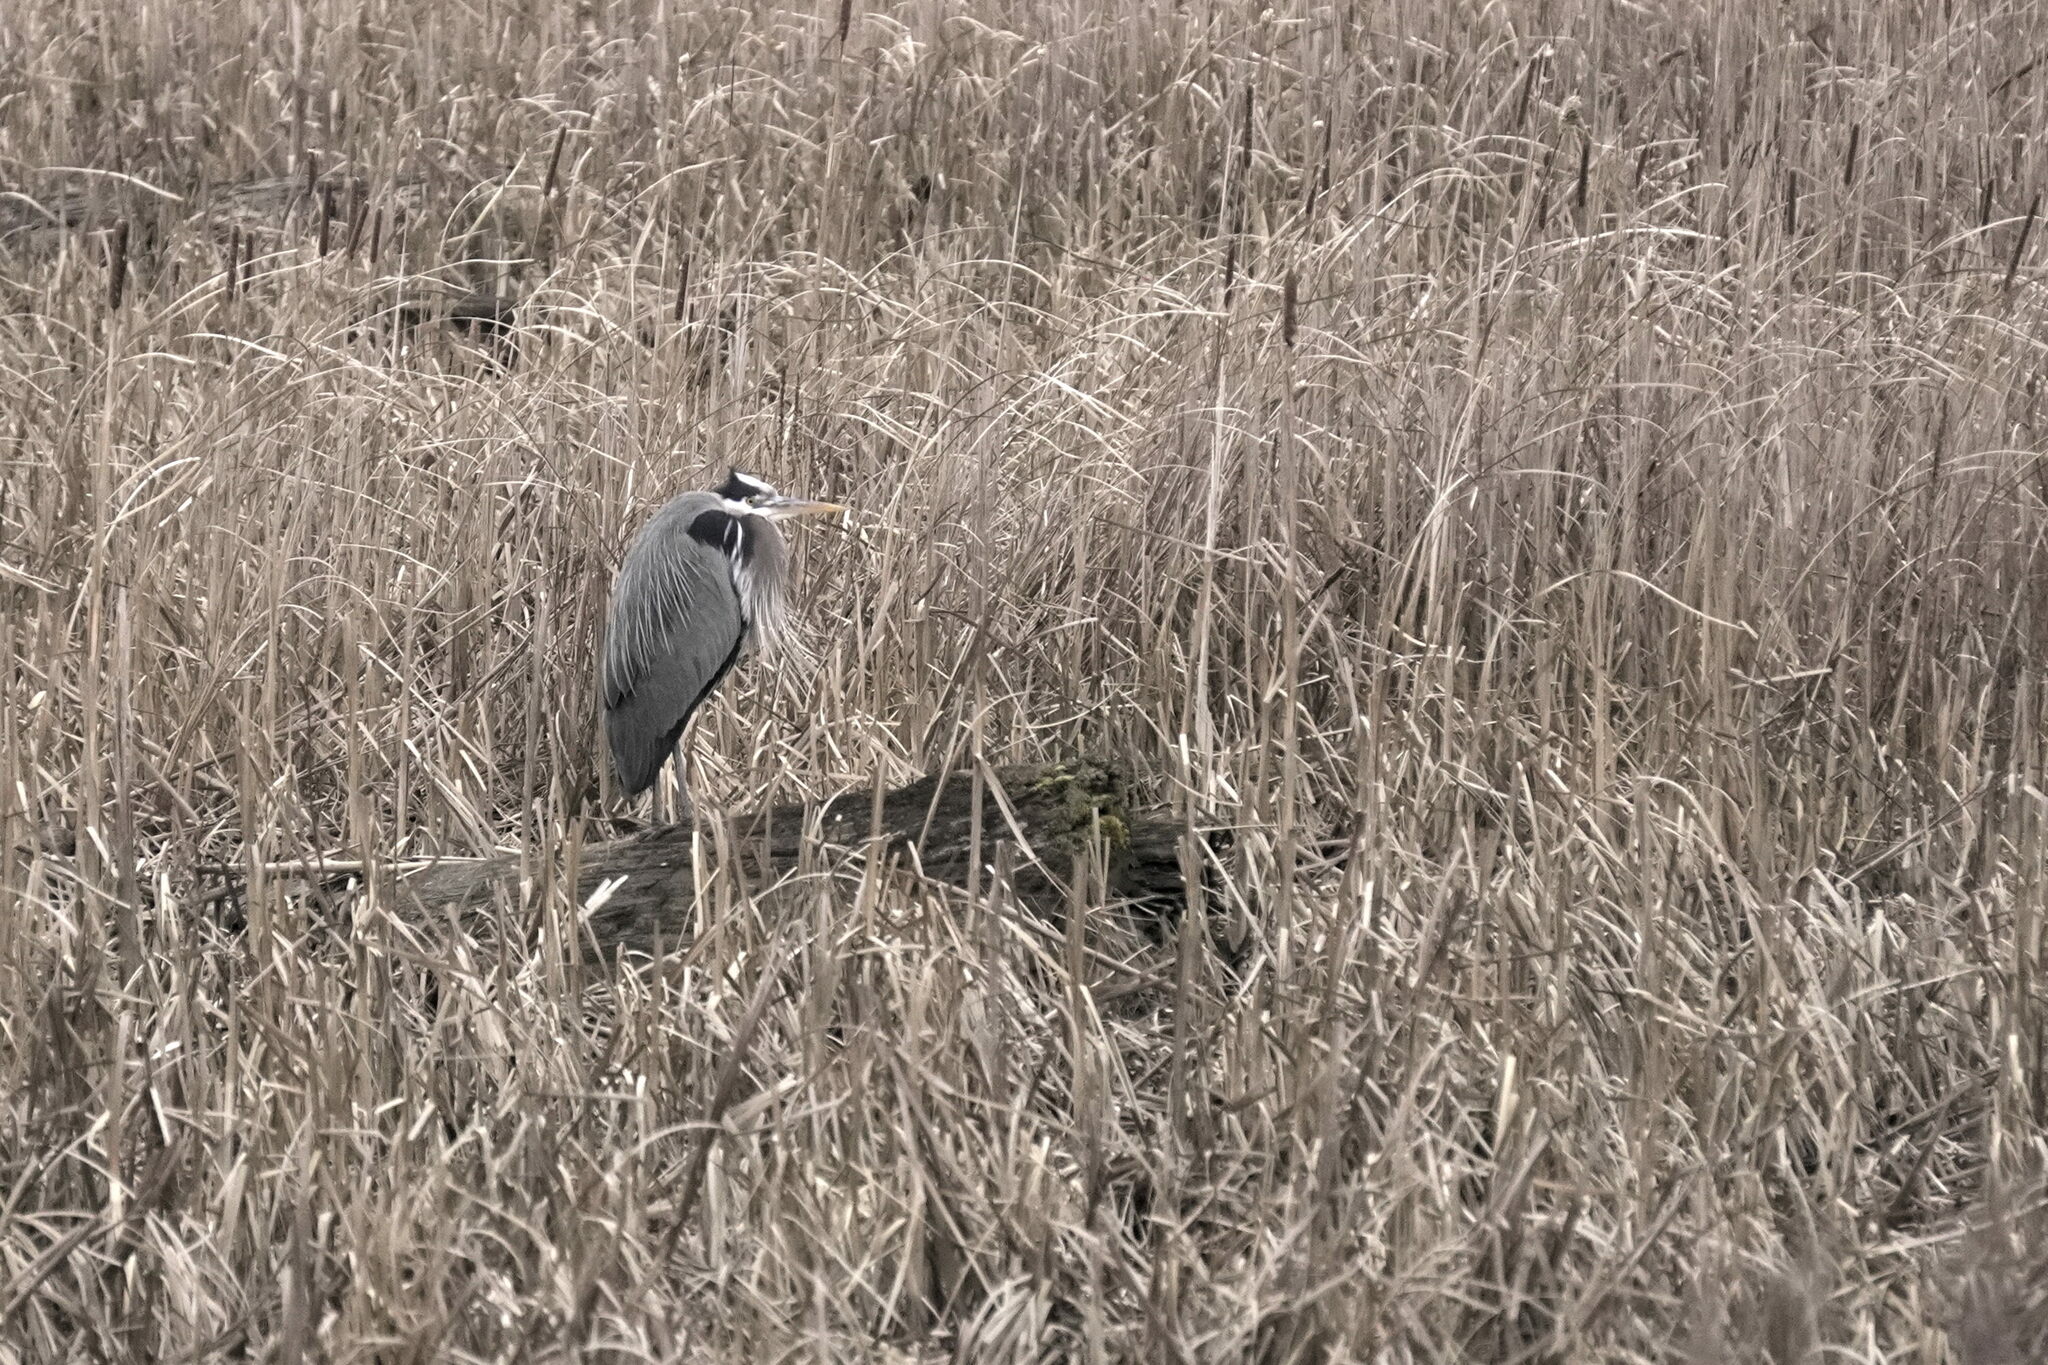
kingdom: Animalia
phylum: Chordata
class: Aves
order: Pelecaniformes
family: Ardeidae
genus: Ardea
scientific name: Ardea herodias
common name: Great blue heron
